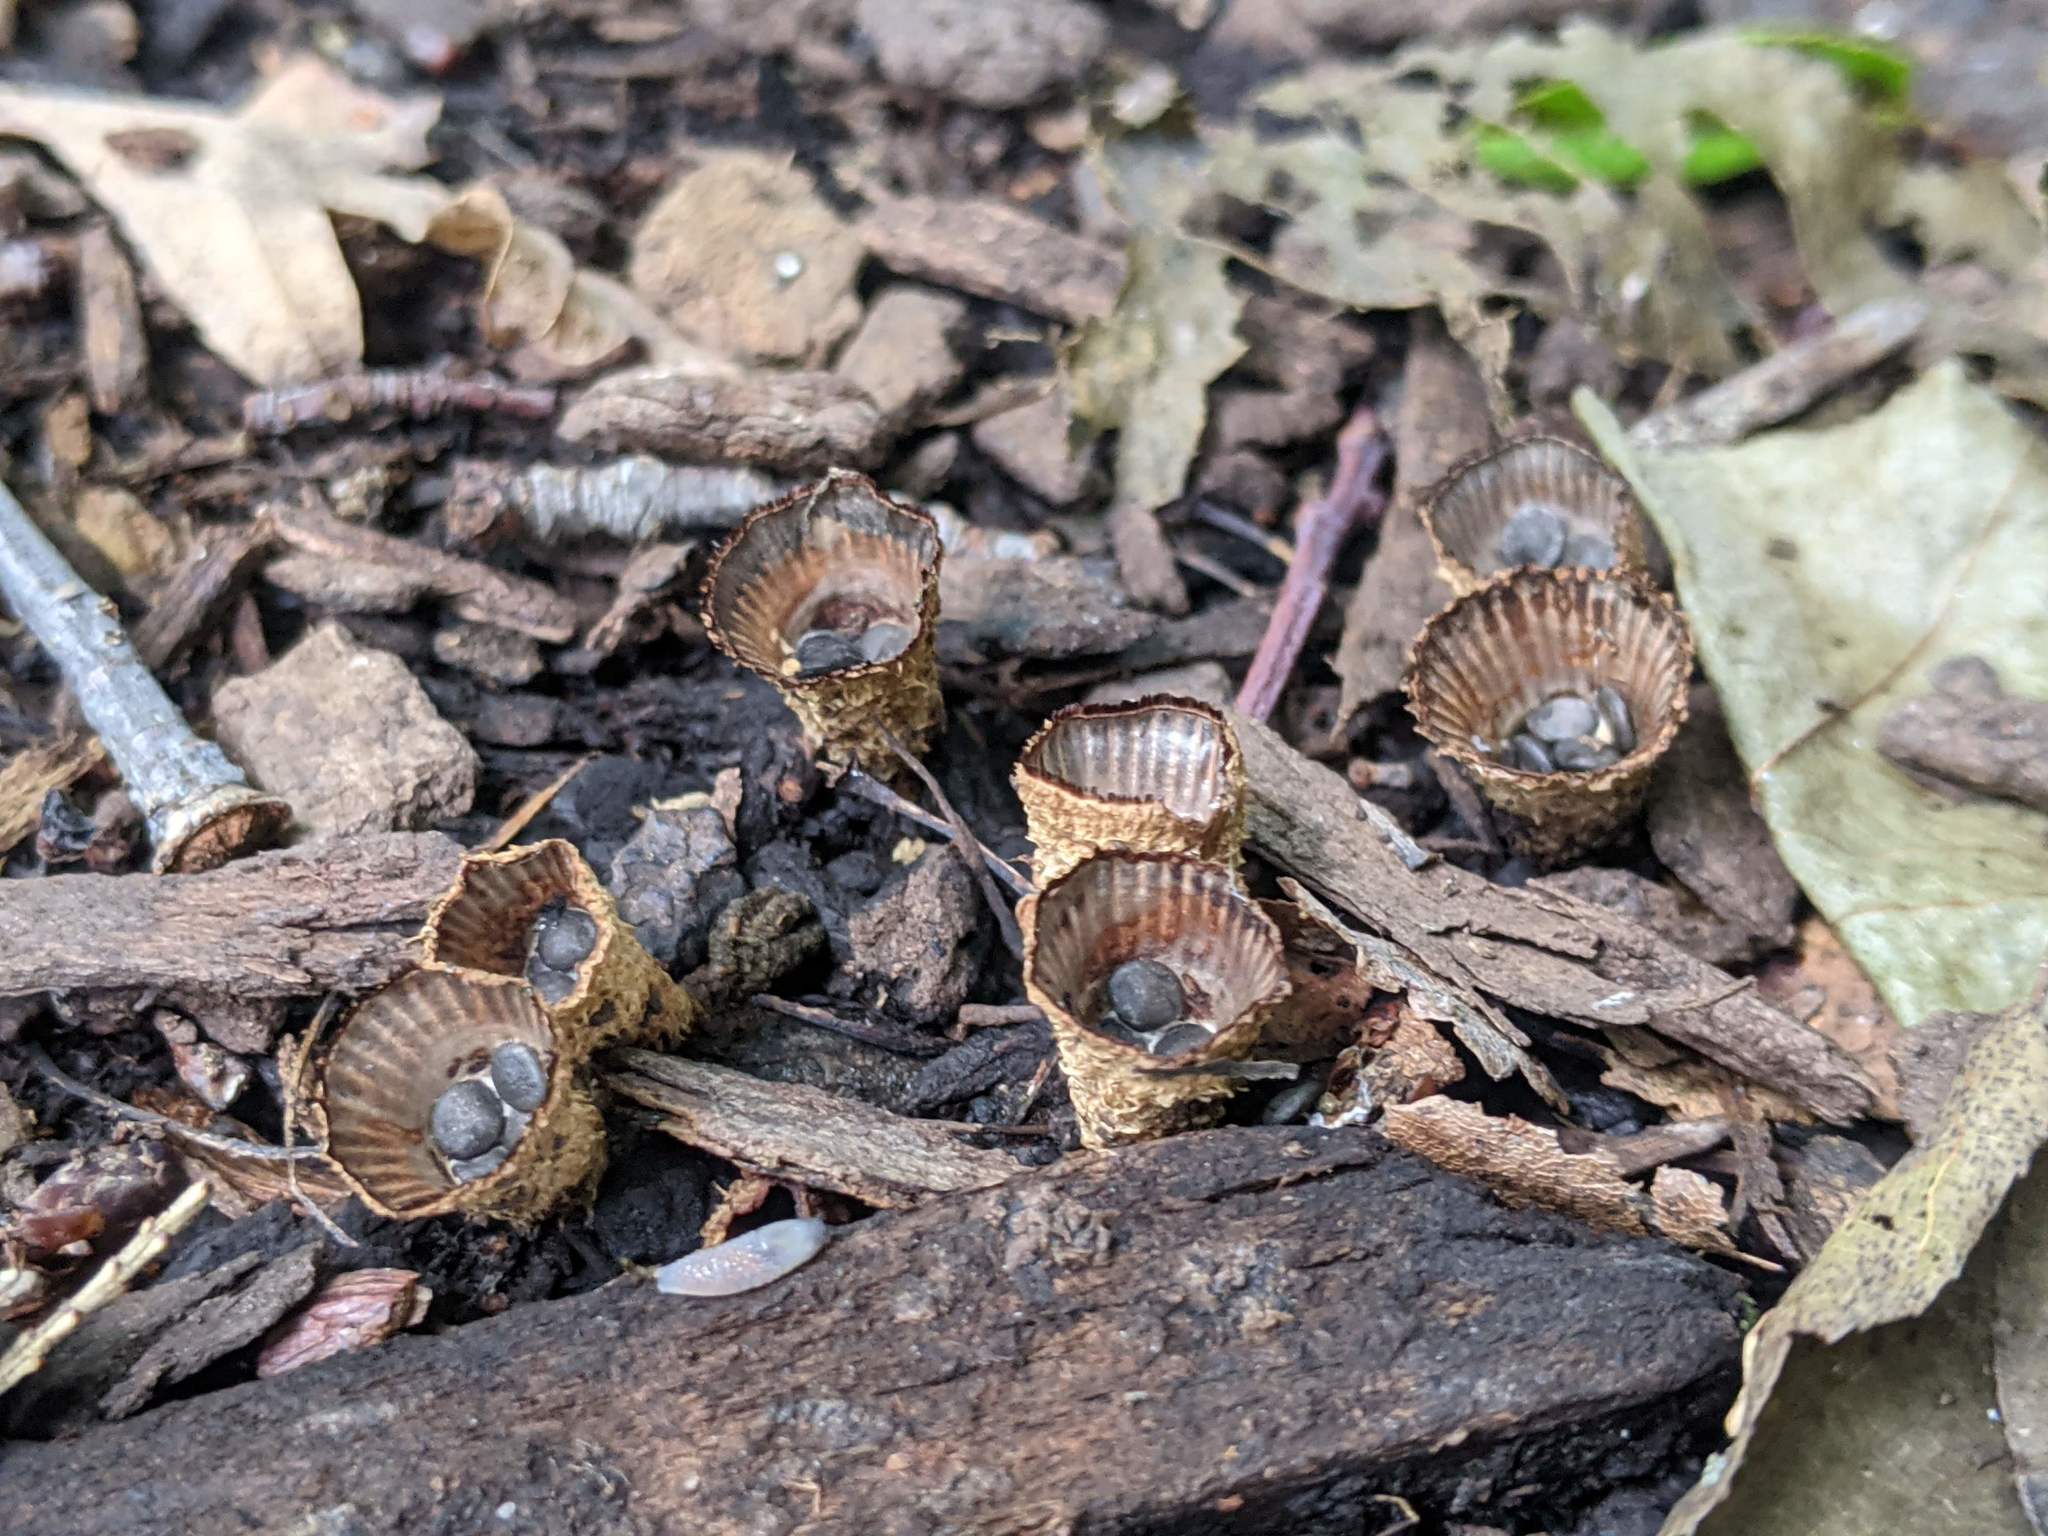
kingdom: Fungi
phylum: Basidiomycota
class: Agaricomycetes
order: Agaricales
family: Agaricaceae
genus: Cyathus
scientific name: Cyathus striatus
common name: Fluted bird's nest
